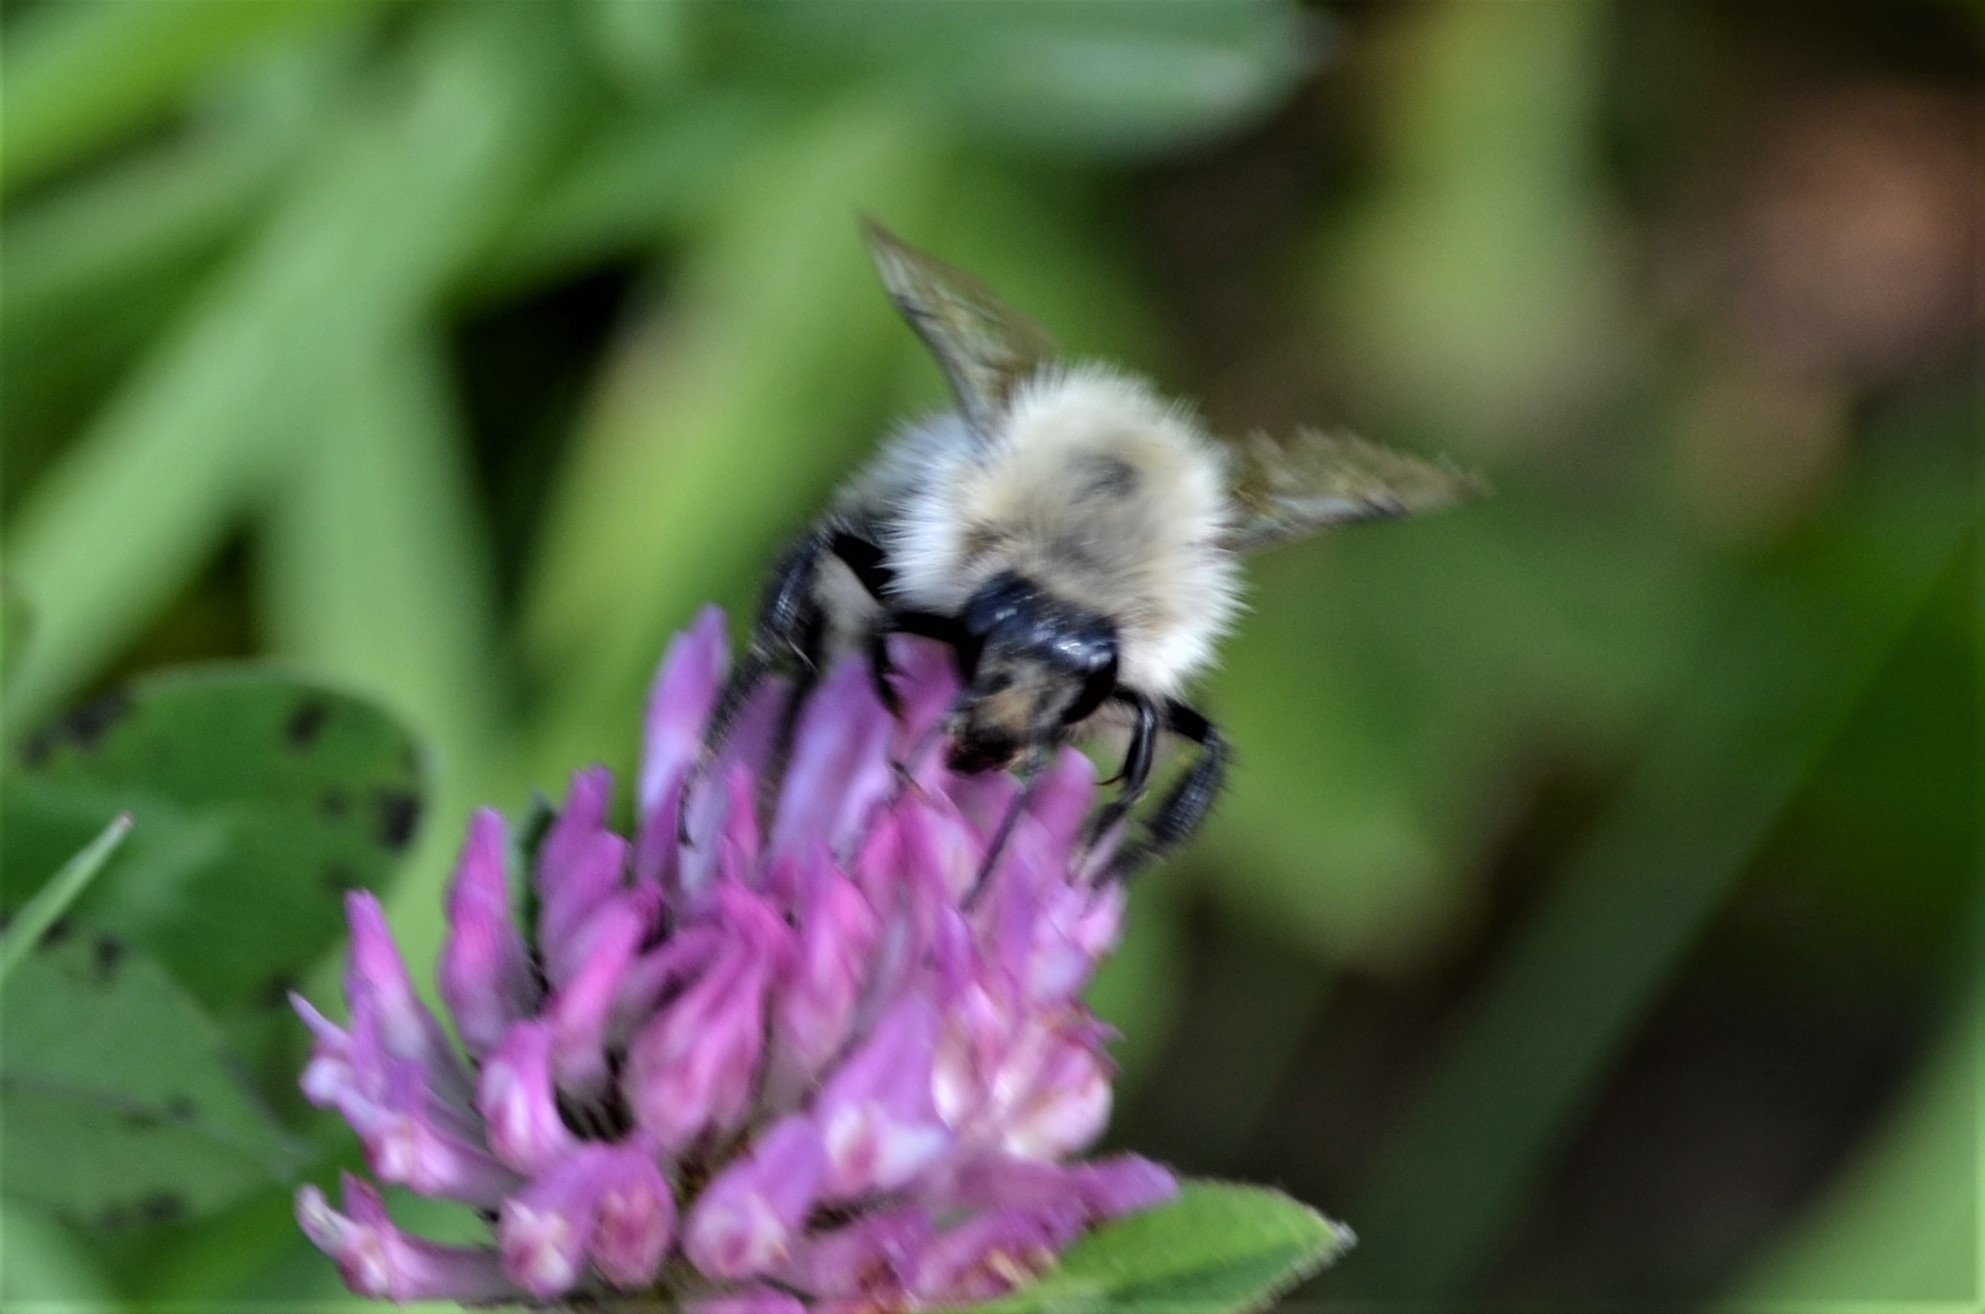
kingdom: Animalia
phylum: Arthropoda
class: Insecta
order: Hymenoptera
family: Apidae
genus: Bombus
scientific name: Bombus pascuorum
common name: Common carder bee
